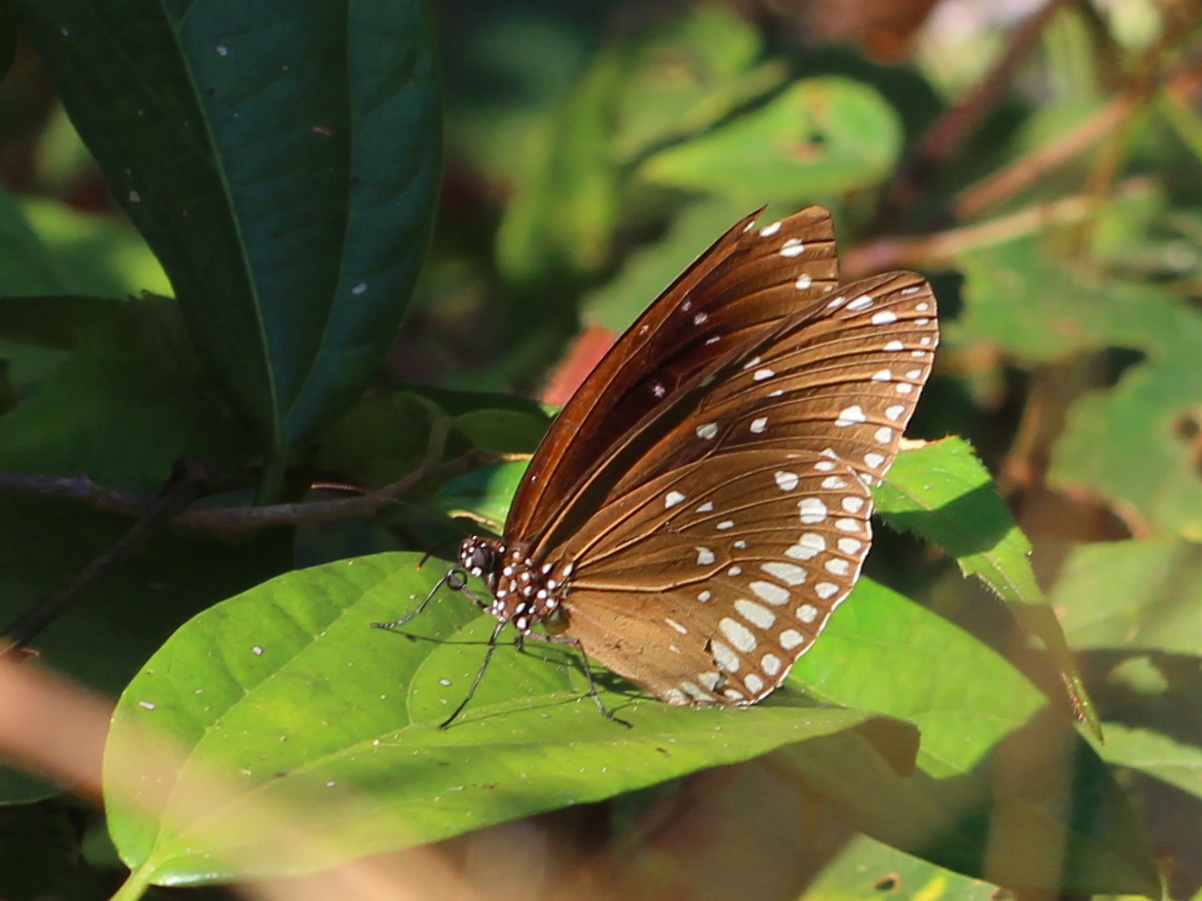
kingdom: Animalia
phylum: Arthropoda
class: Insecta
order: Lepidoptera
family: Nymphalidae
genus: Euploea
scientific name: Euploea sylvester
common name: Double-branded crow butterfly
